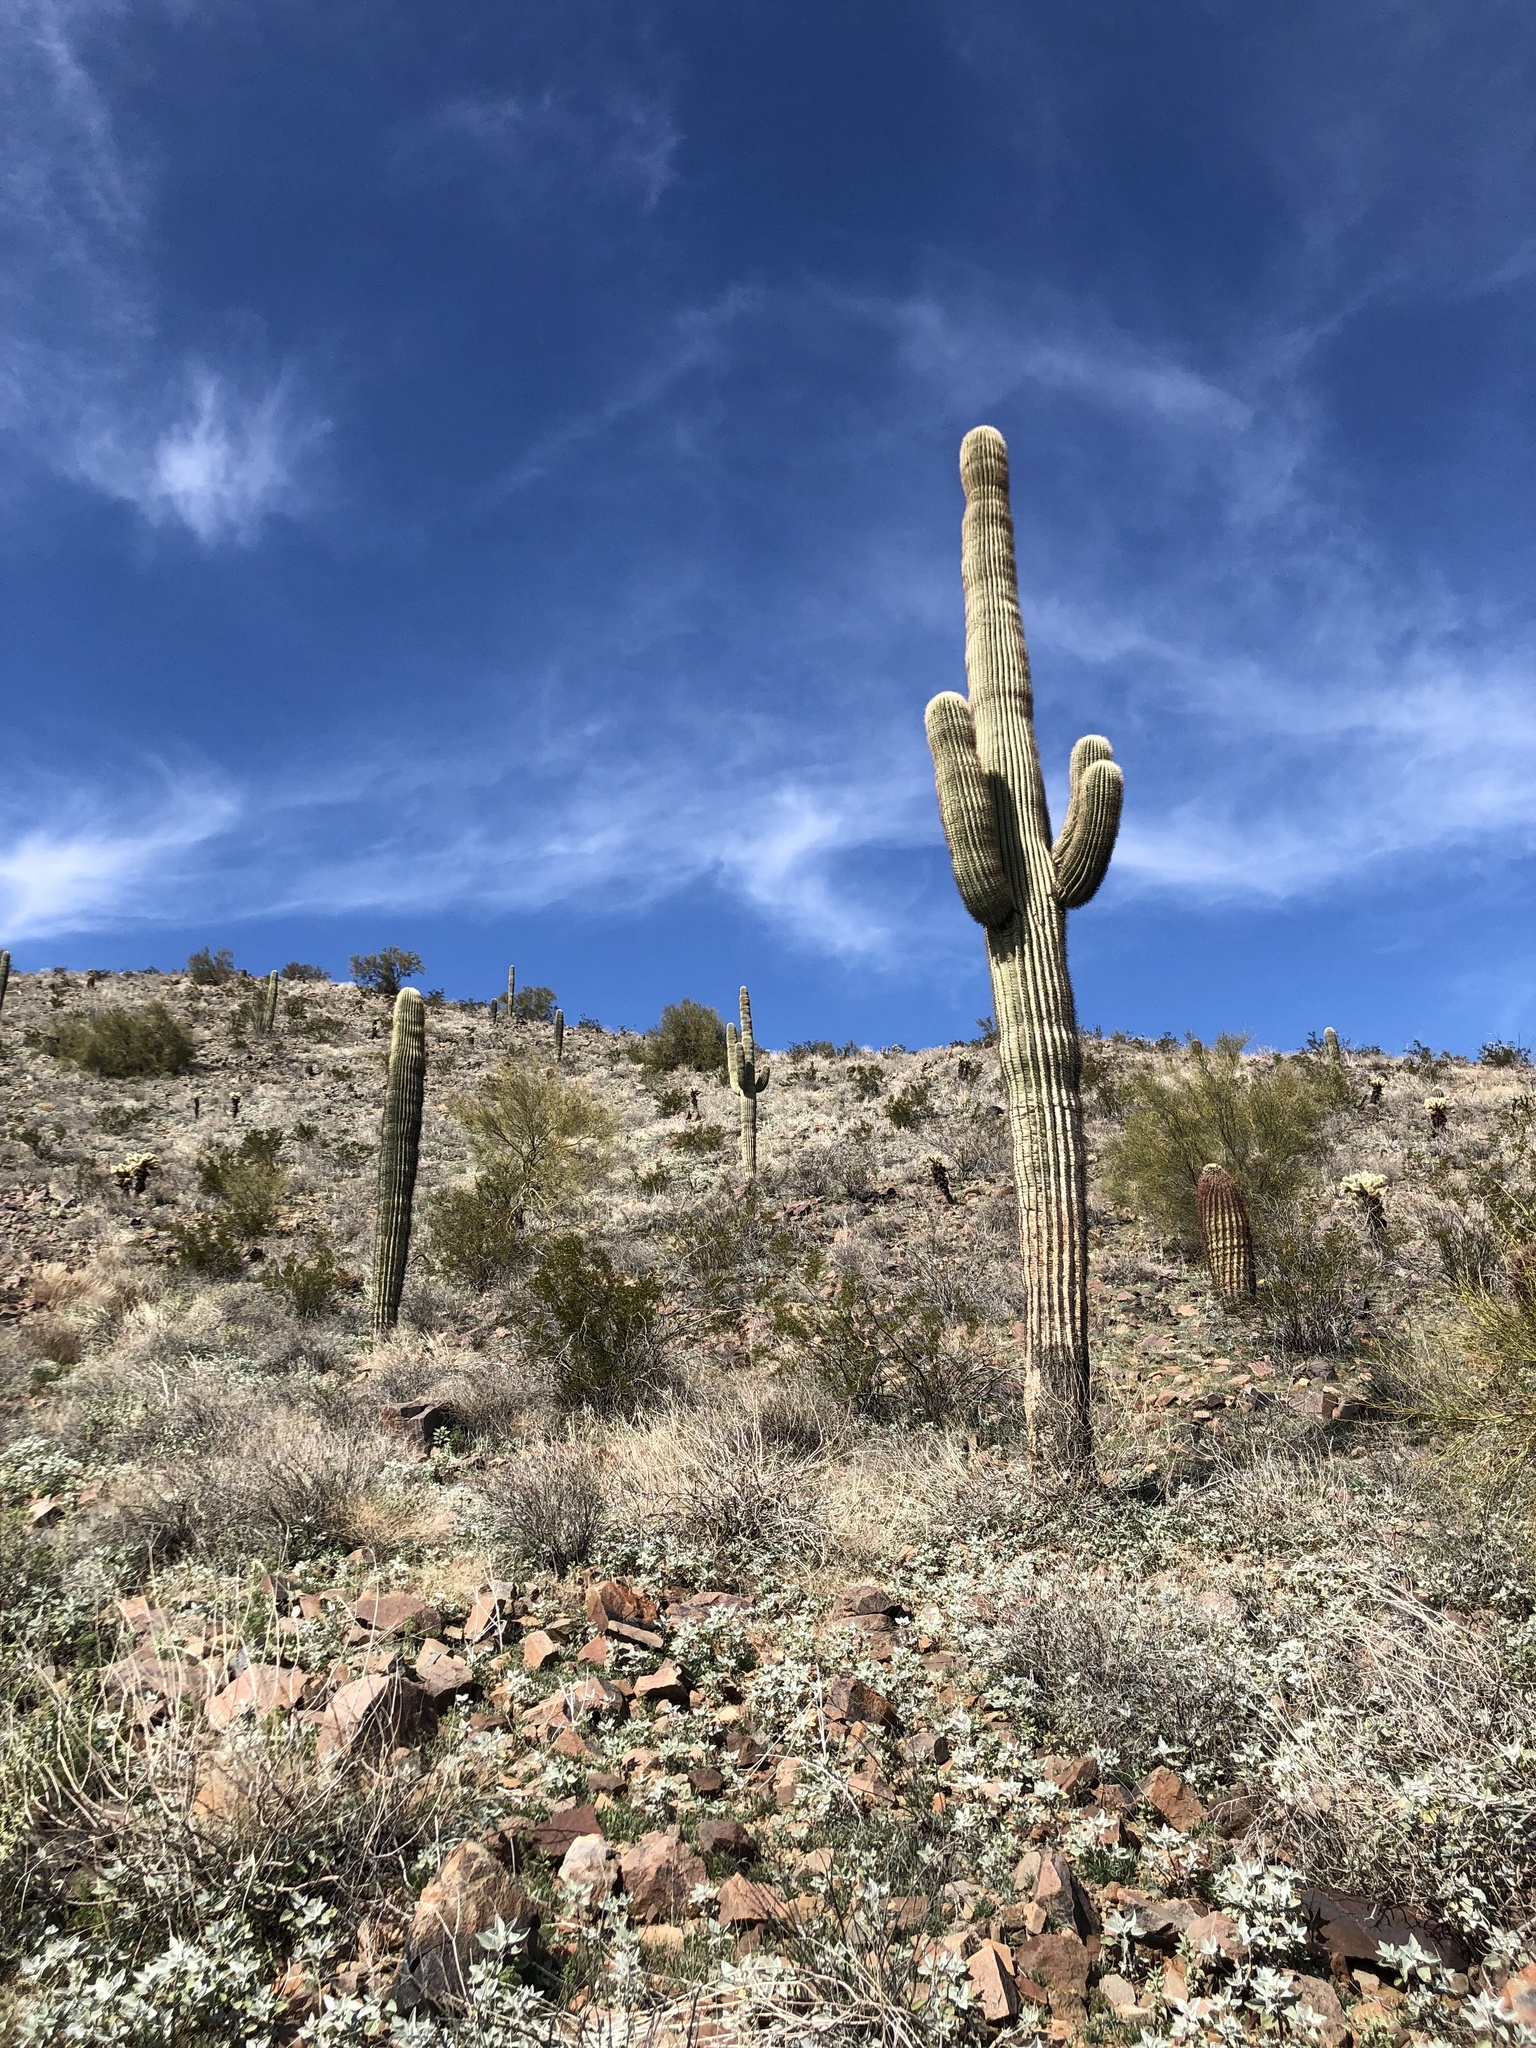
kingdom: Plantae
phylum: Tracheophyta
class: Magnoliopsida
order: Caryophyllales
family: Cactaceae
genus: Carnegiea
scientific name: Carnegiea gigantea
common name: Saguaro
